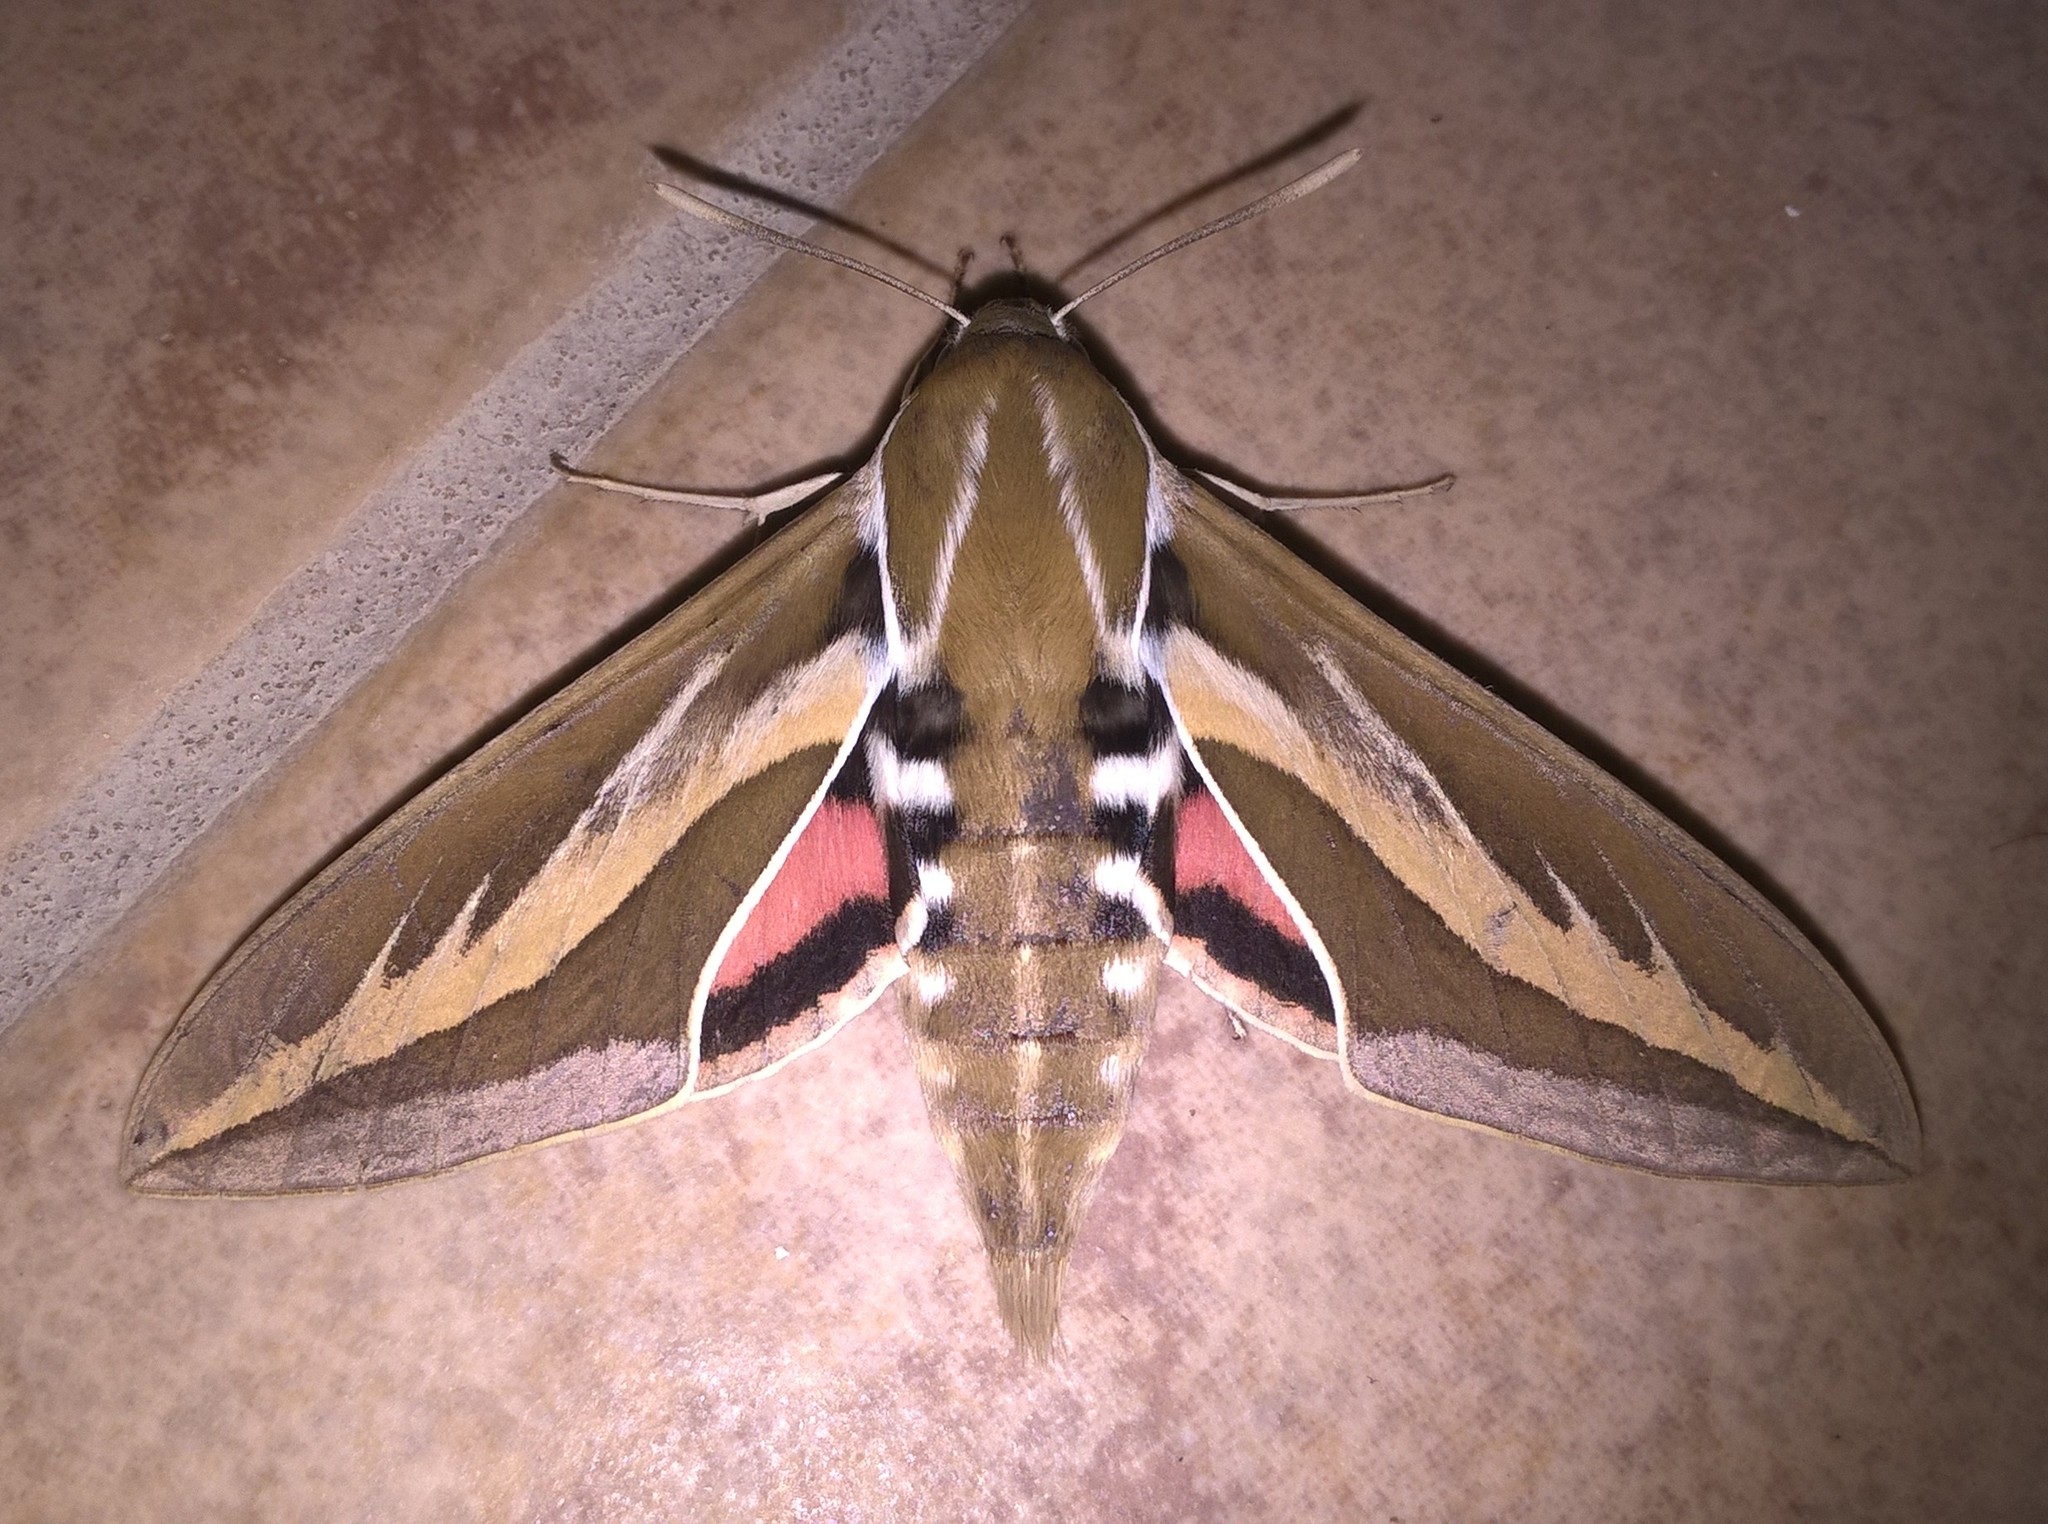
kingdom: Animalia
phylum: Arthropoda
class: Insecta
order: Lepidoptera
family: Sphingidae
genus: Hyles
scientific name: Hyles euphorbiarum
